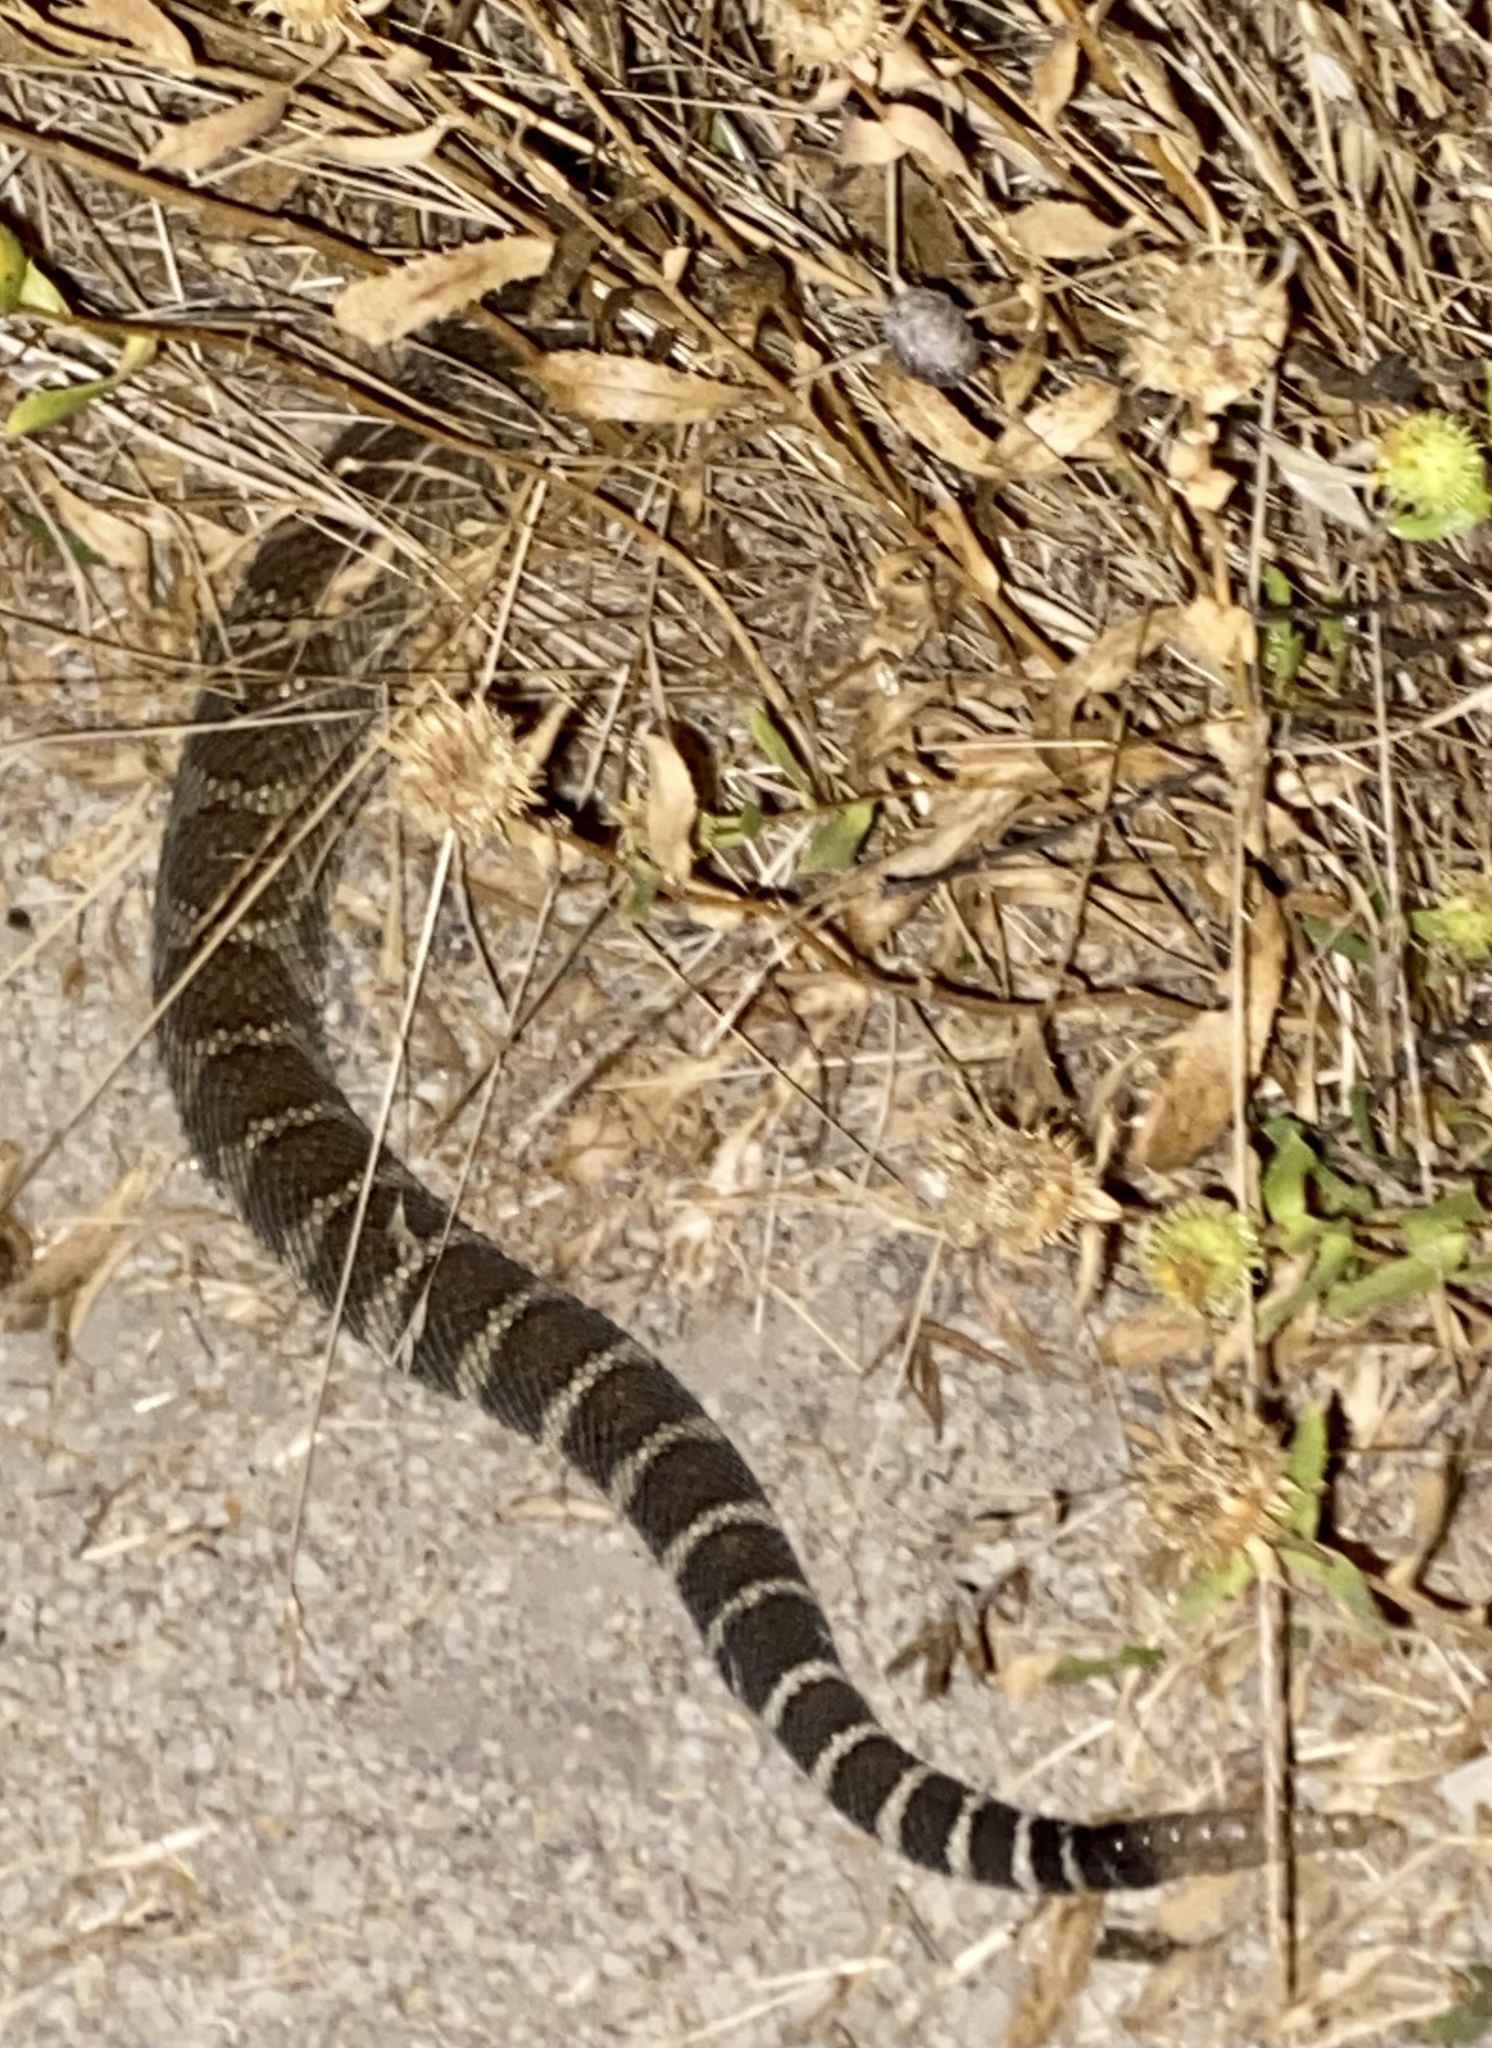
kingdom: Animalia
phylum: Chordata
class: Squamata
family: Viperidae
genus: Crotalus
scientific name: Crotalus oreganus
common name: Abyssus
